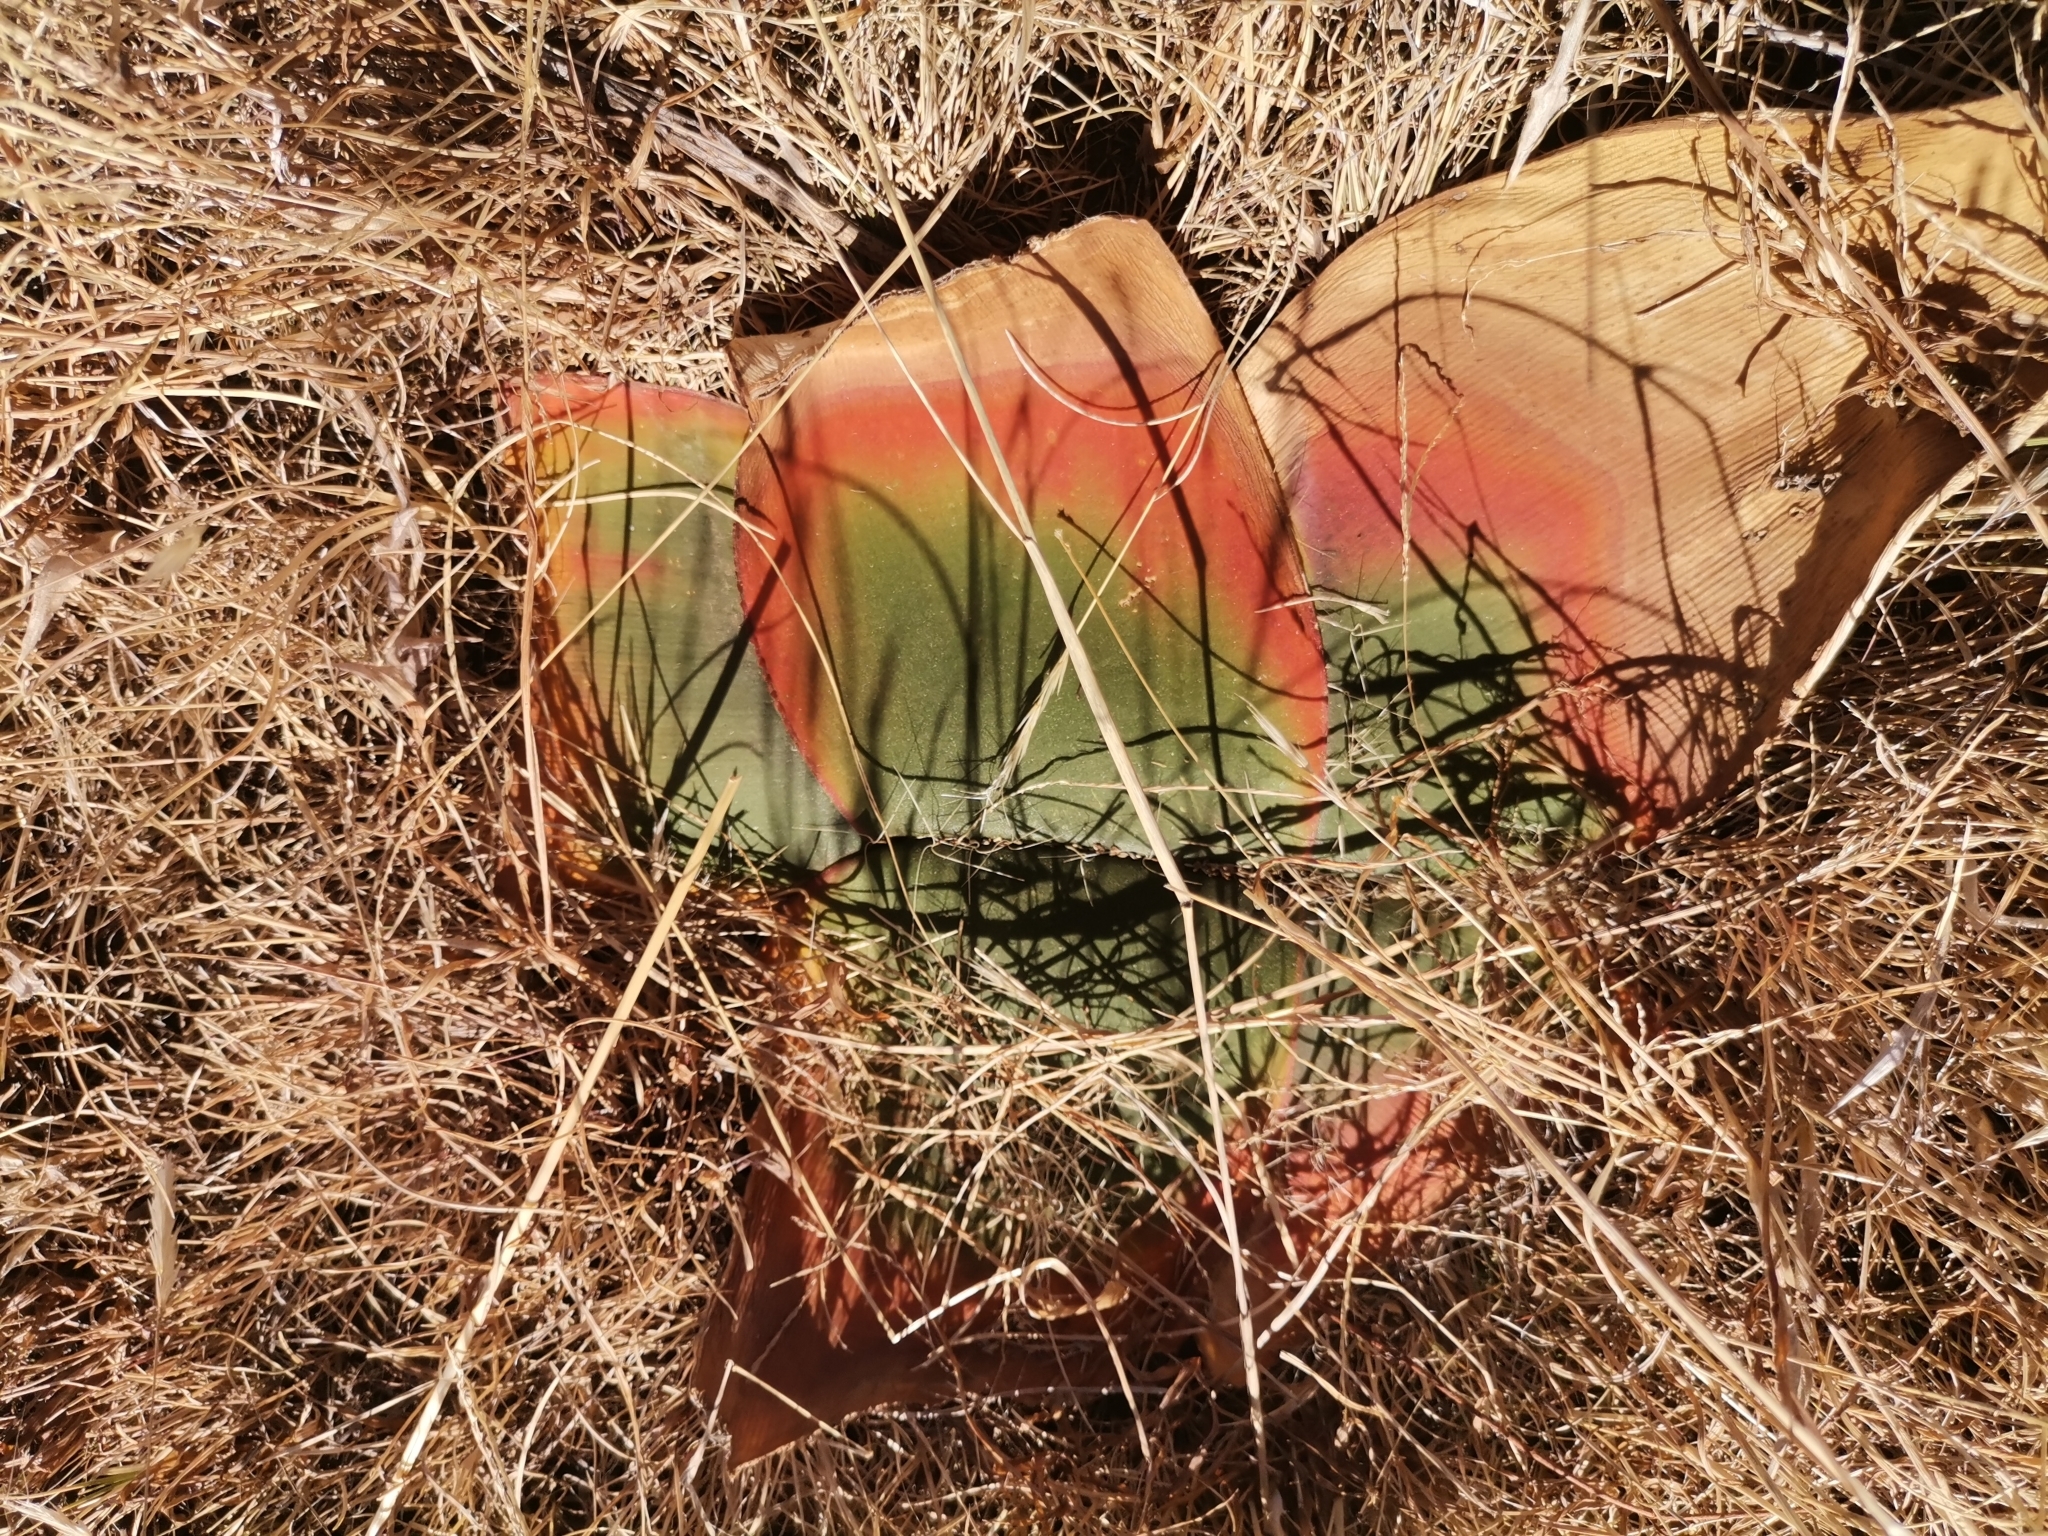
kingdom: Plantae
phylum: Tracheophyta
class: Liliopsida
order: Asparagales
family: Amaryllidaceae
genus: Brunsvigia
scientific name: Brunsvigia radulosa
